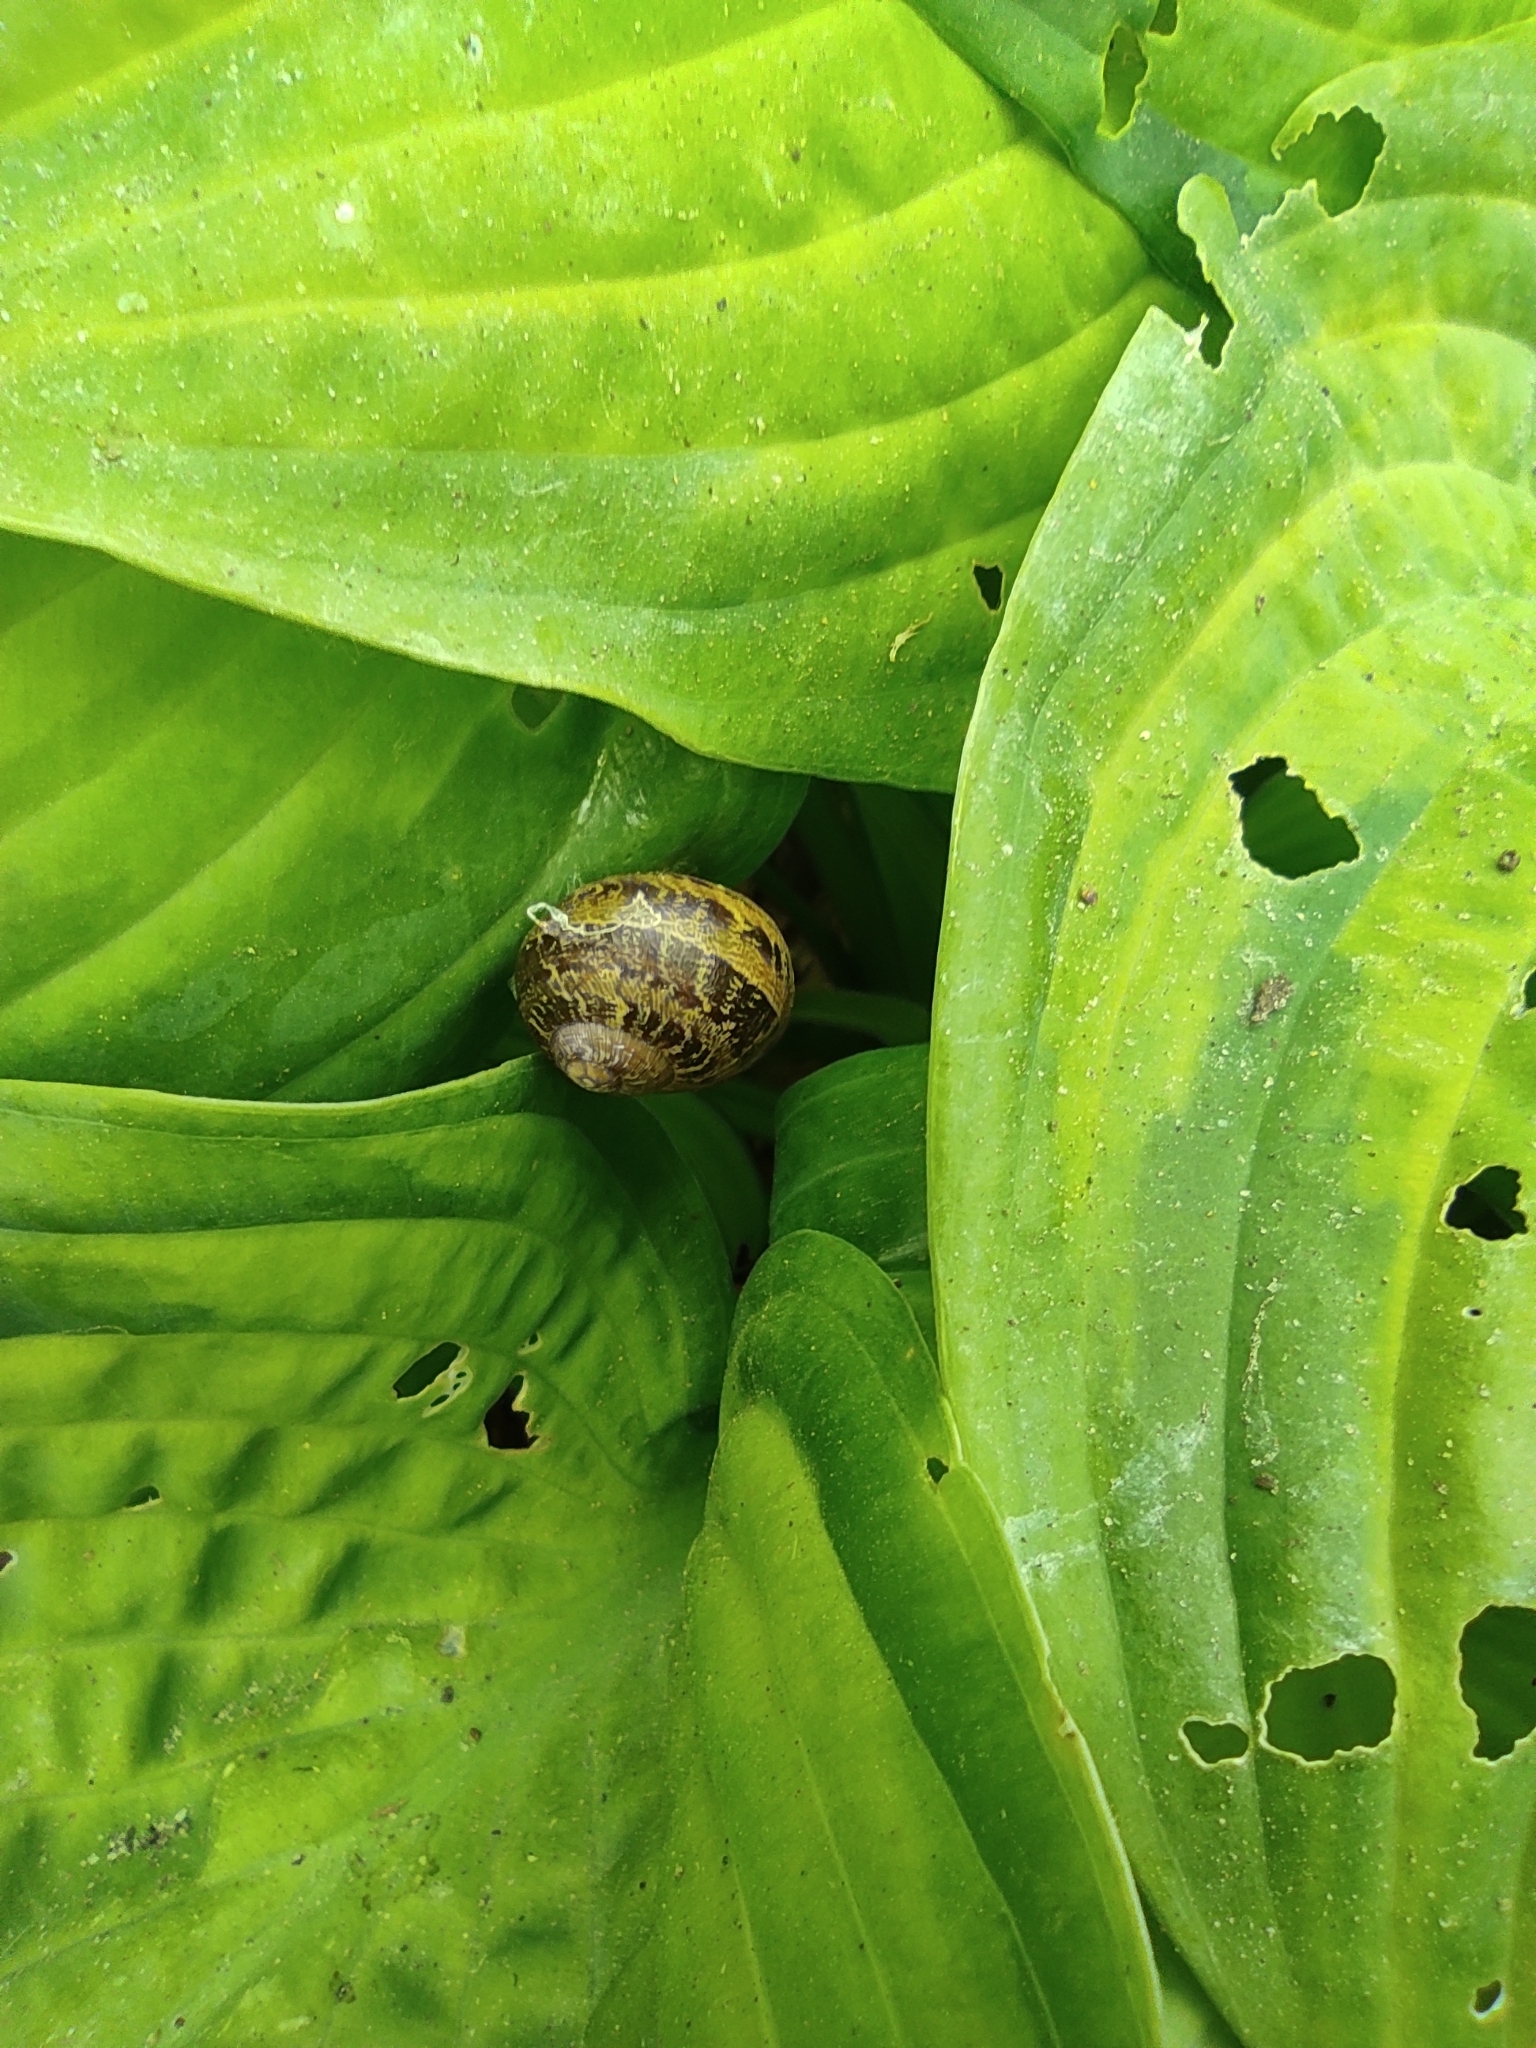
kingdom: Animalia
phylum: Mollusca
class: Gastropoda
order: Stylommatophora
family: Helicidae
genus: Cornu
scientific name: Cornu aspersum
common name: Brown garden snail
